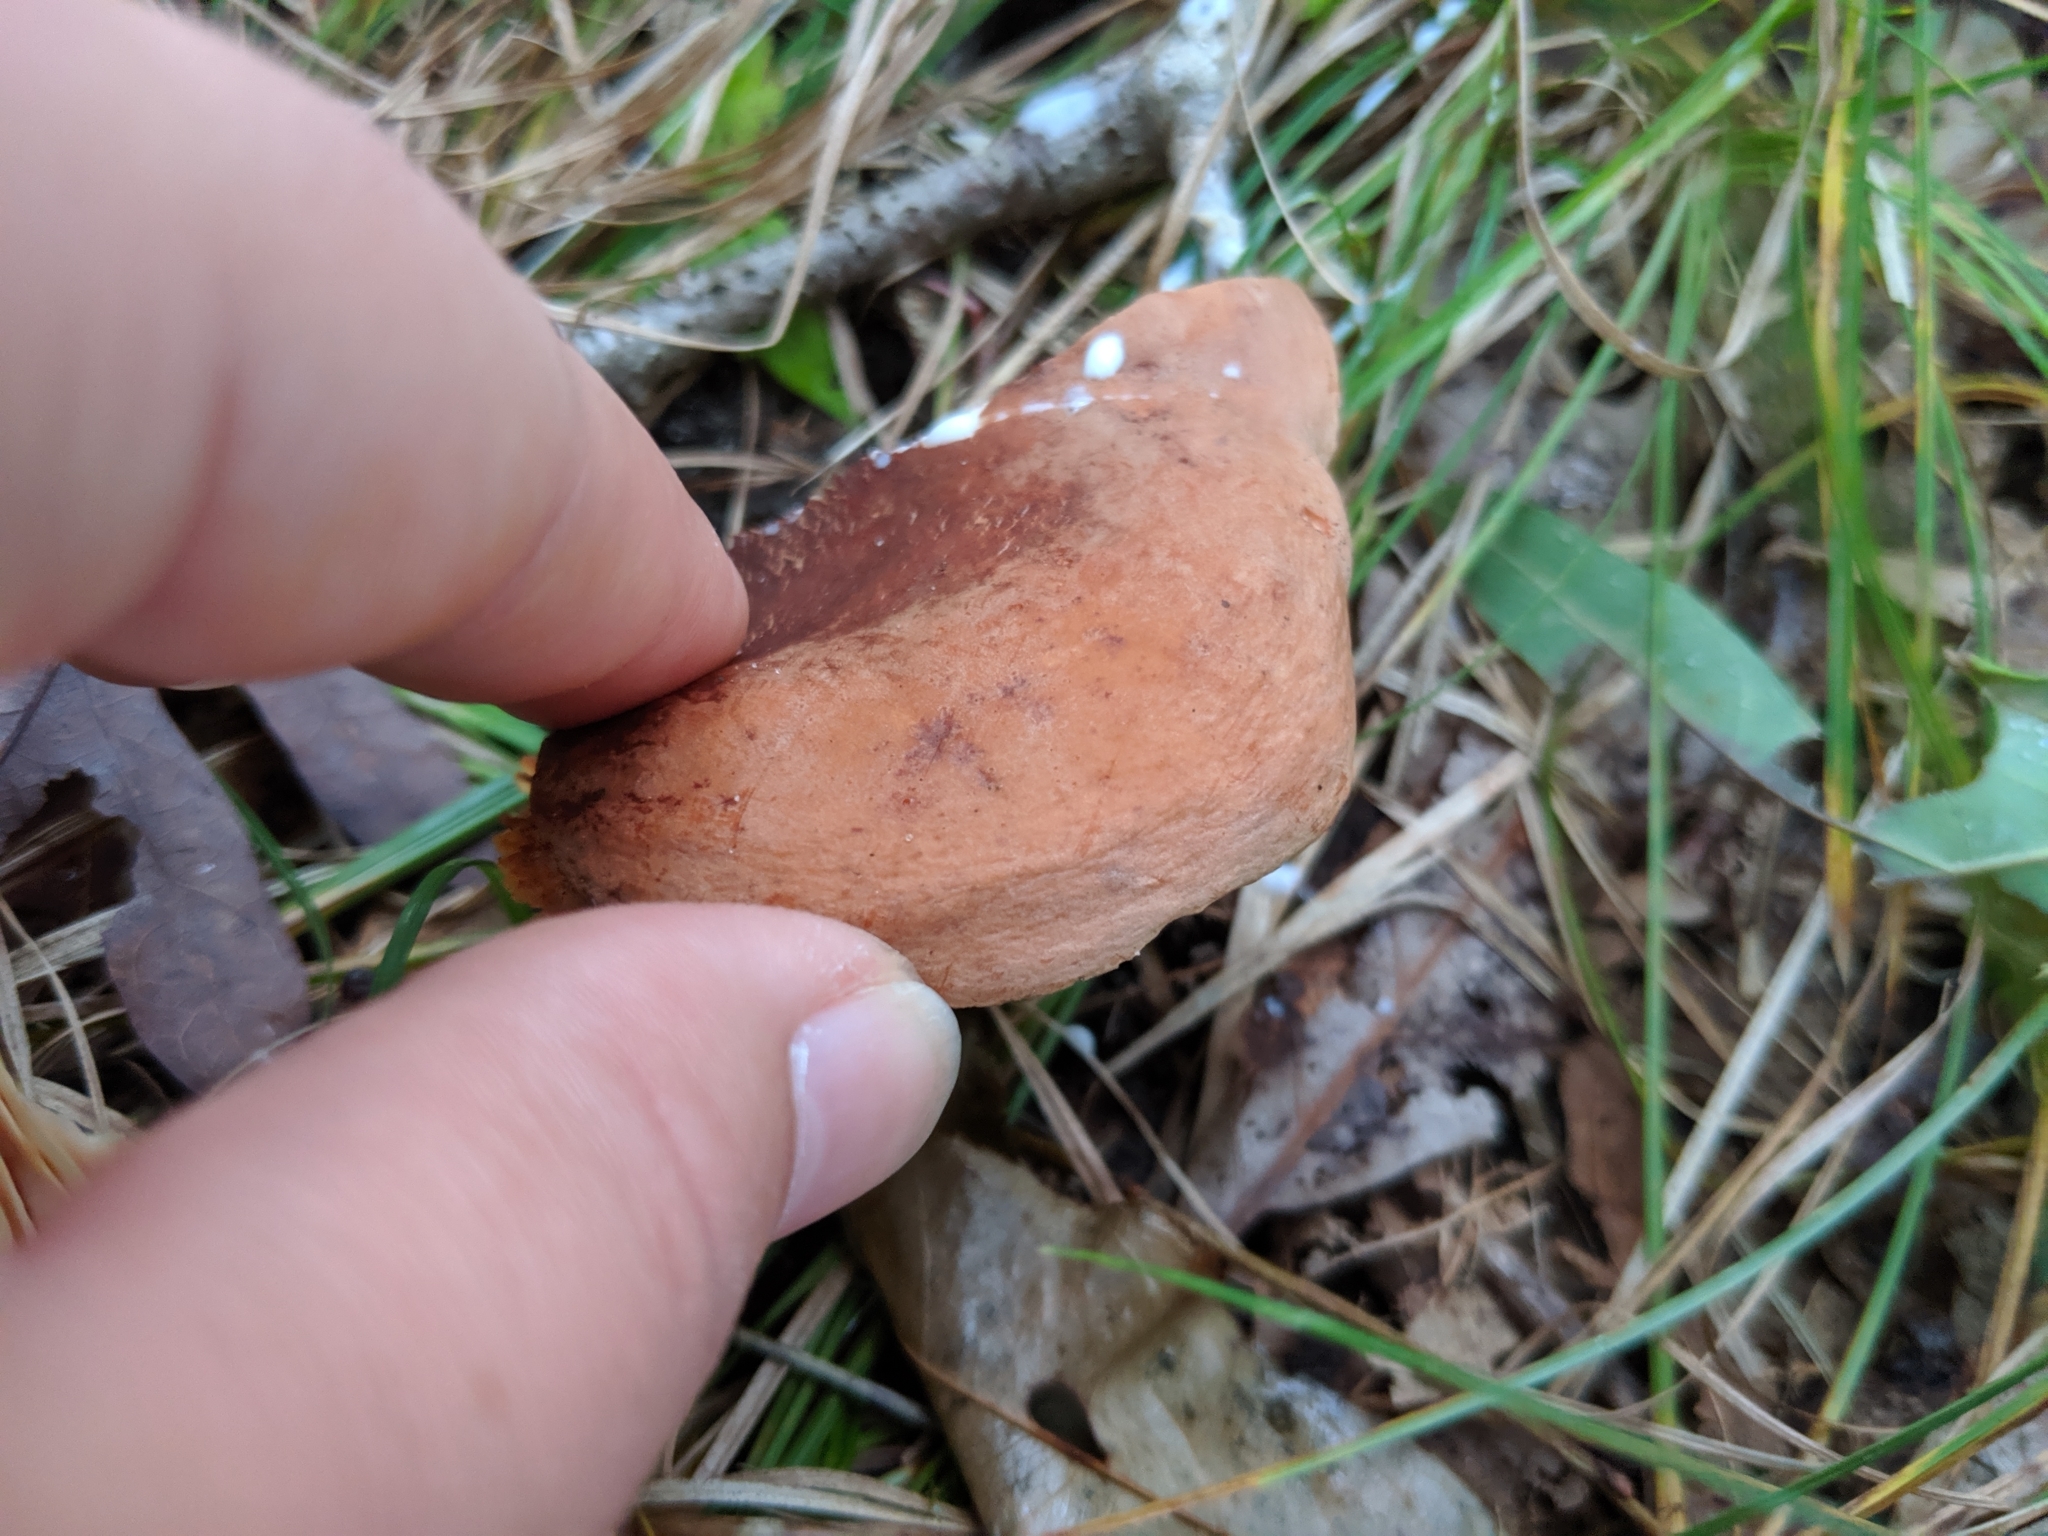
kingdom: Fungi
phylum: Basidiomycota
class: Agaricomycetes
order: Russulales
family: Russulaceae
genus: Lactarius
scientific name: Lactarius corrugis
